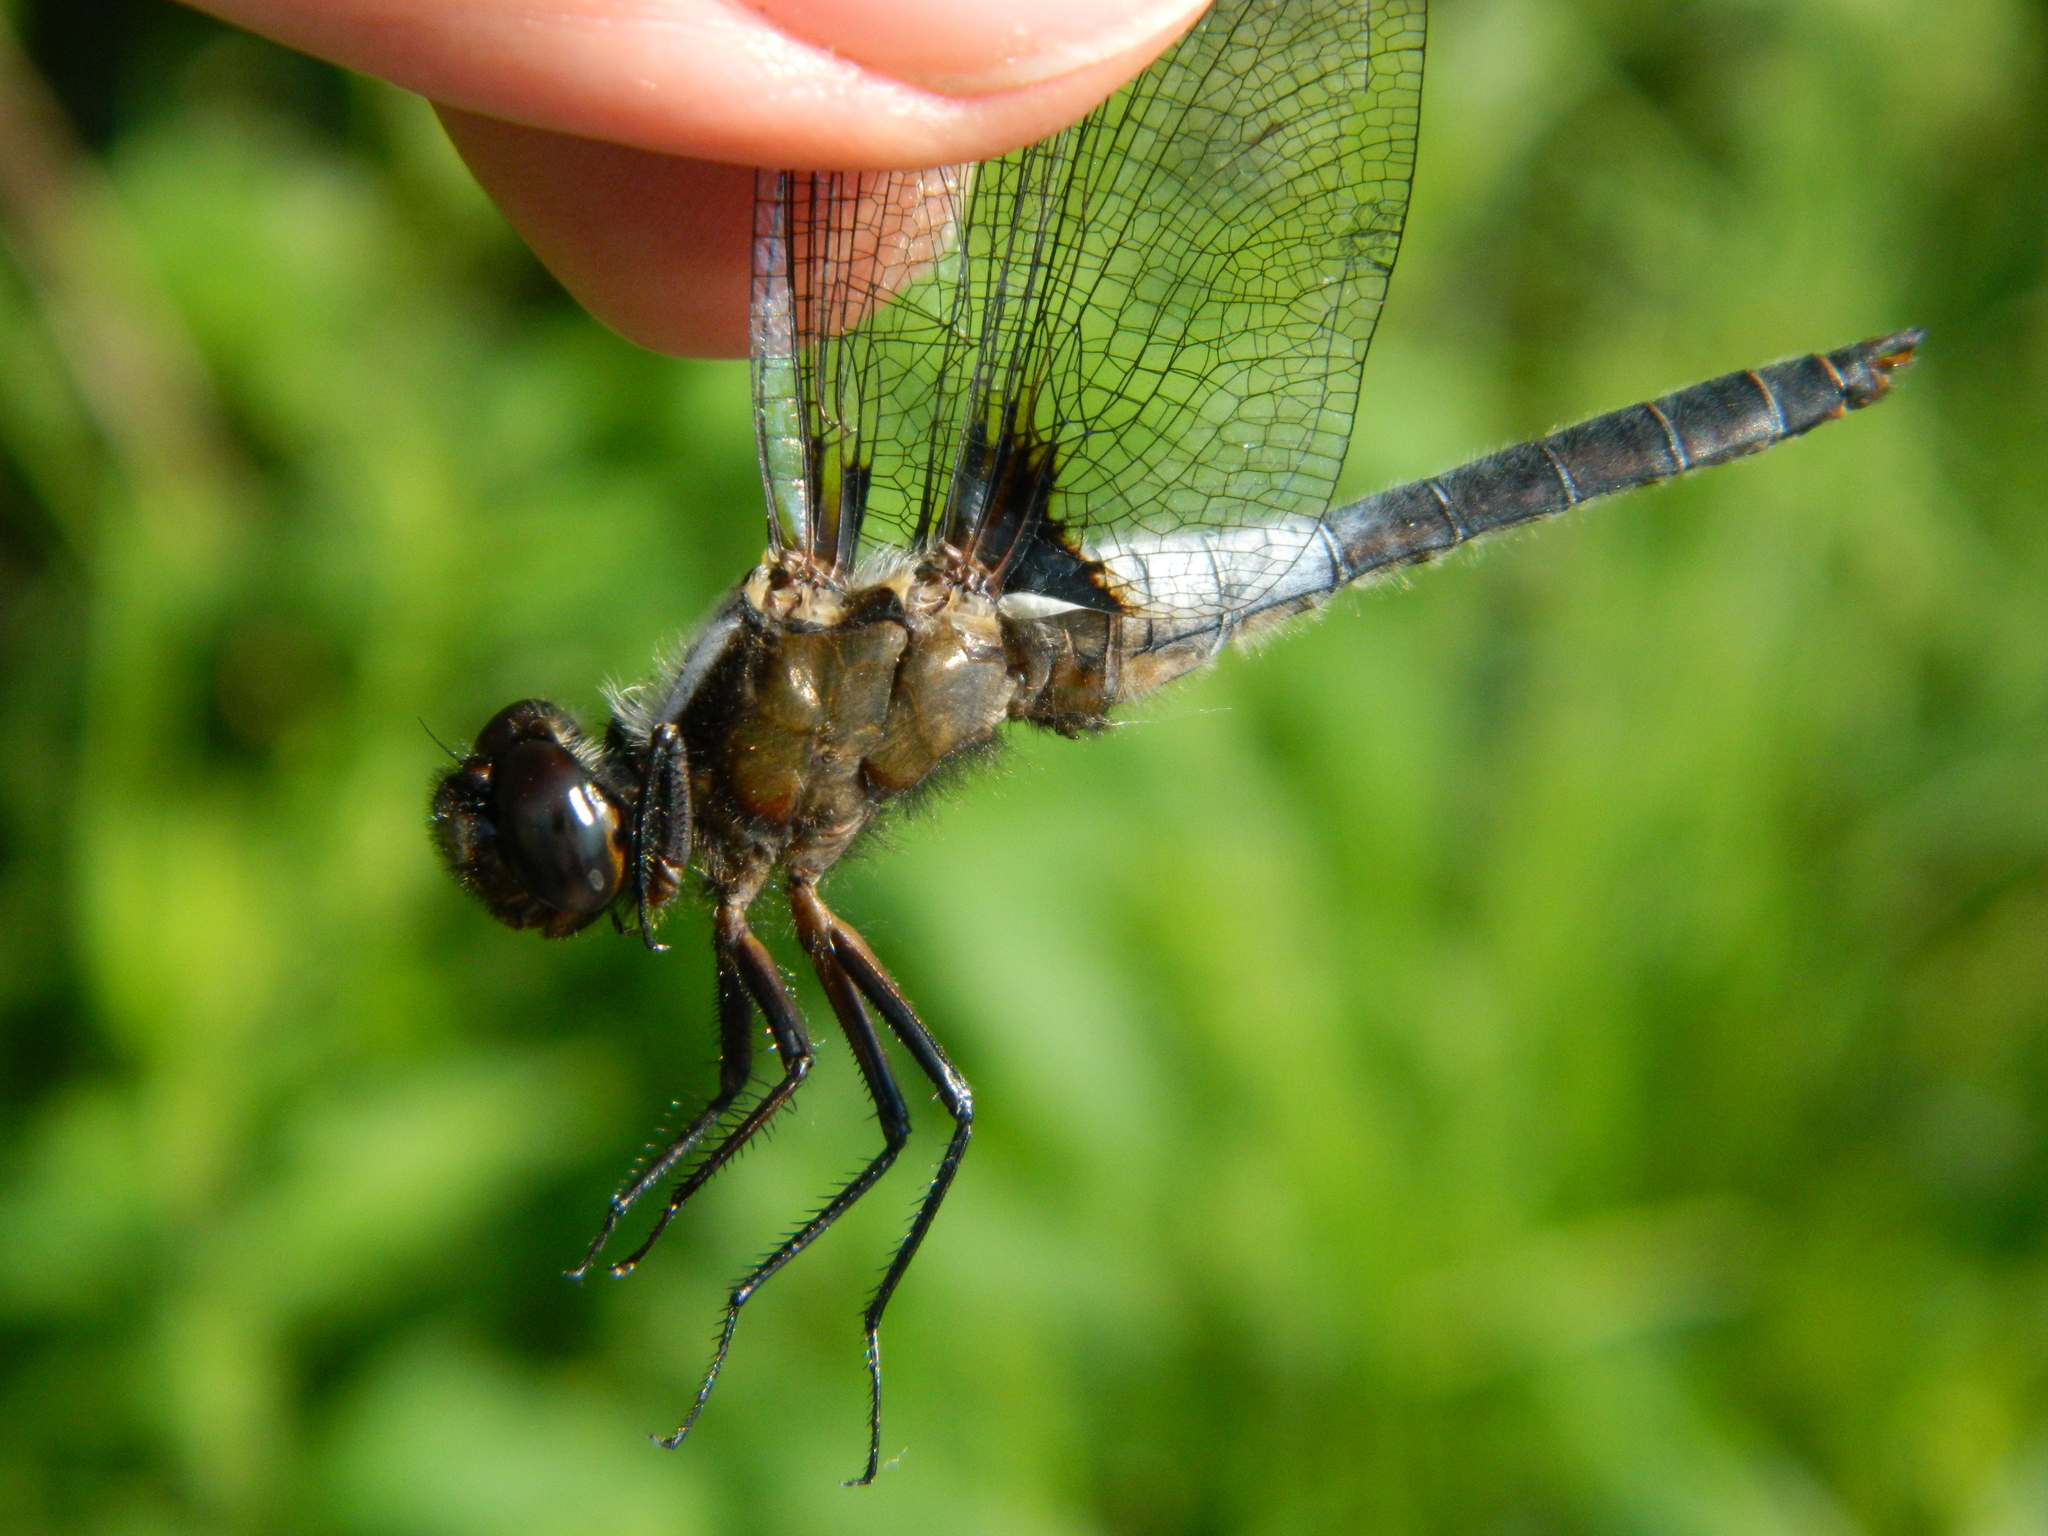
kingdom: Animalia
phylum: Arthropoda
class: Insecta
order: Odonata
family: Libellulidae
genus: Ladona
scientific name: Ladona julia
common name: Chalk-fronted corporal
